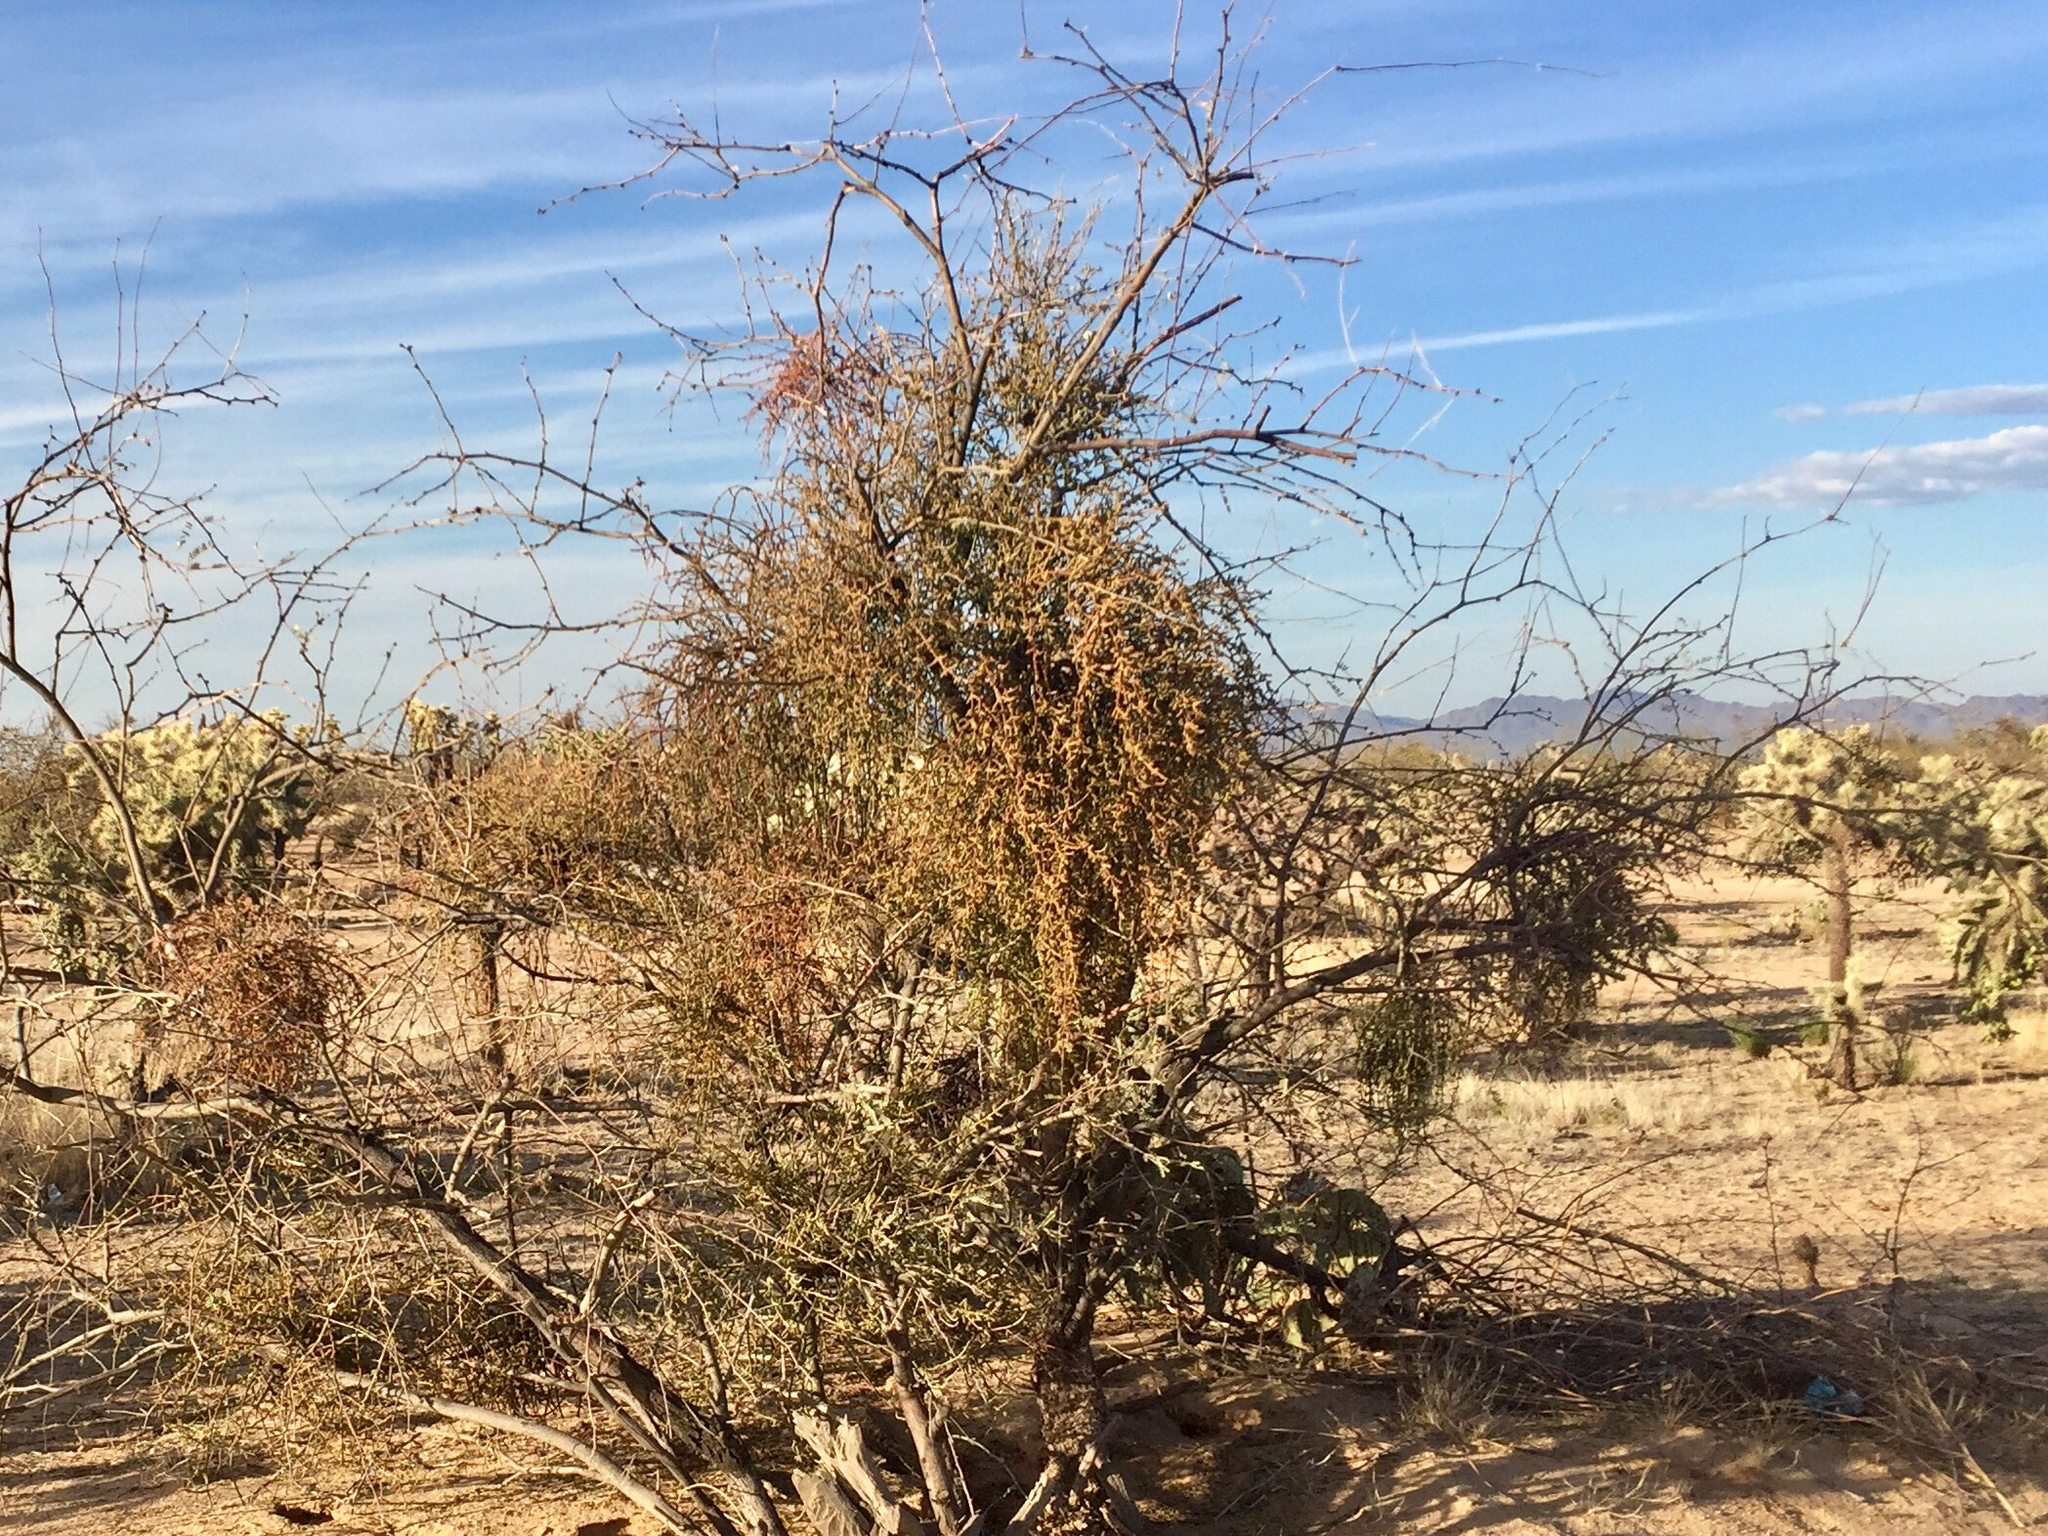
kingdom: Plantae
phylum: Tracheophyta
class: Magnoliopsida
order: Santalales
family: Viscaceae
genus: Phoradendron
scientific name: Phoradendron californicum
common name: Acacia mistletoe
